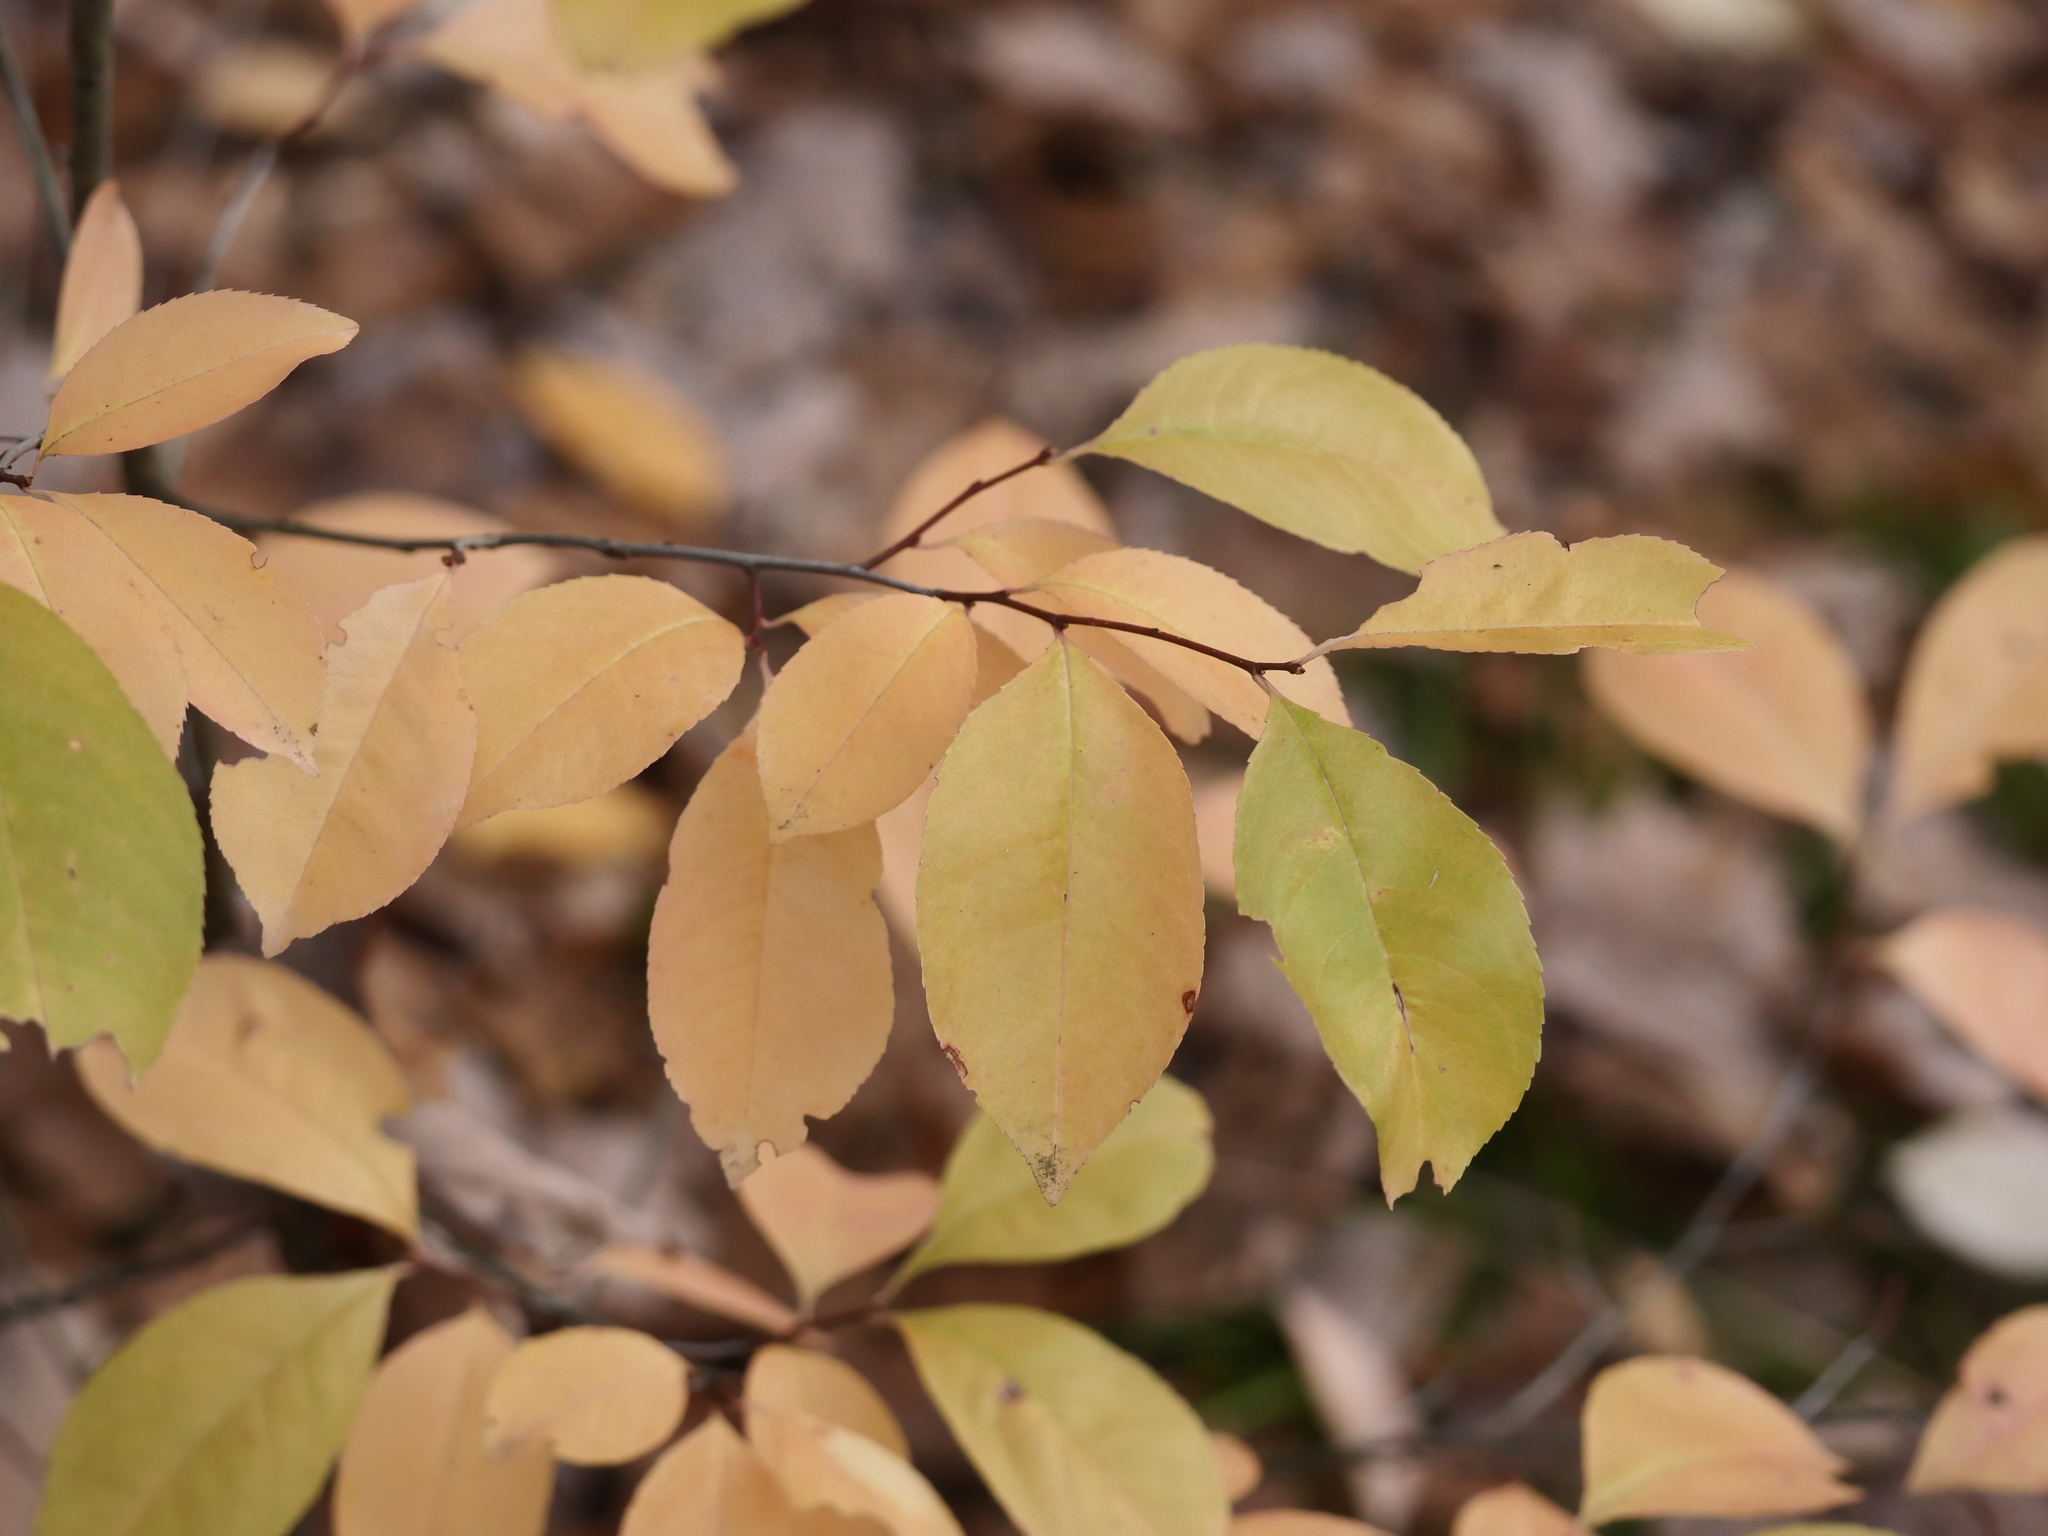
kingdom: Plantae
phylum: Tracheophyta
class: Magnoliopsida
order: Rosales
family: Rosaceae
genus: Prunus
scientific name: Prunus serotina
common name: Black cherry
